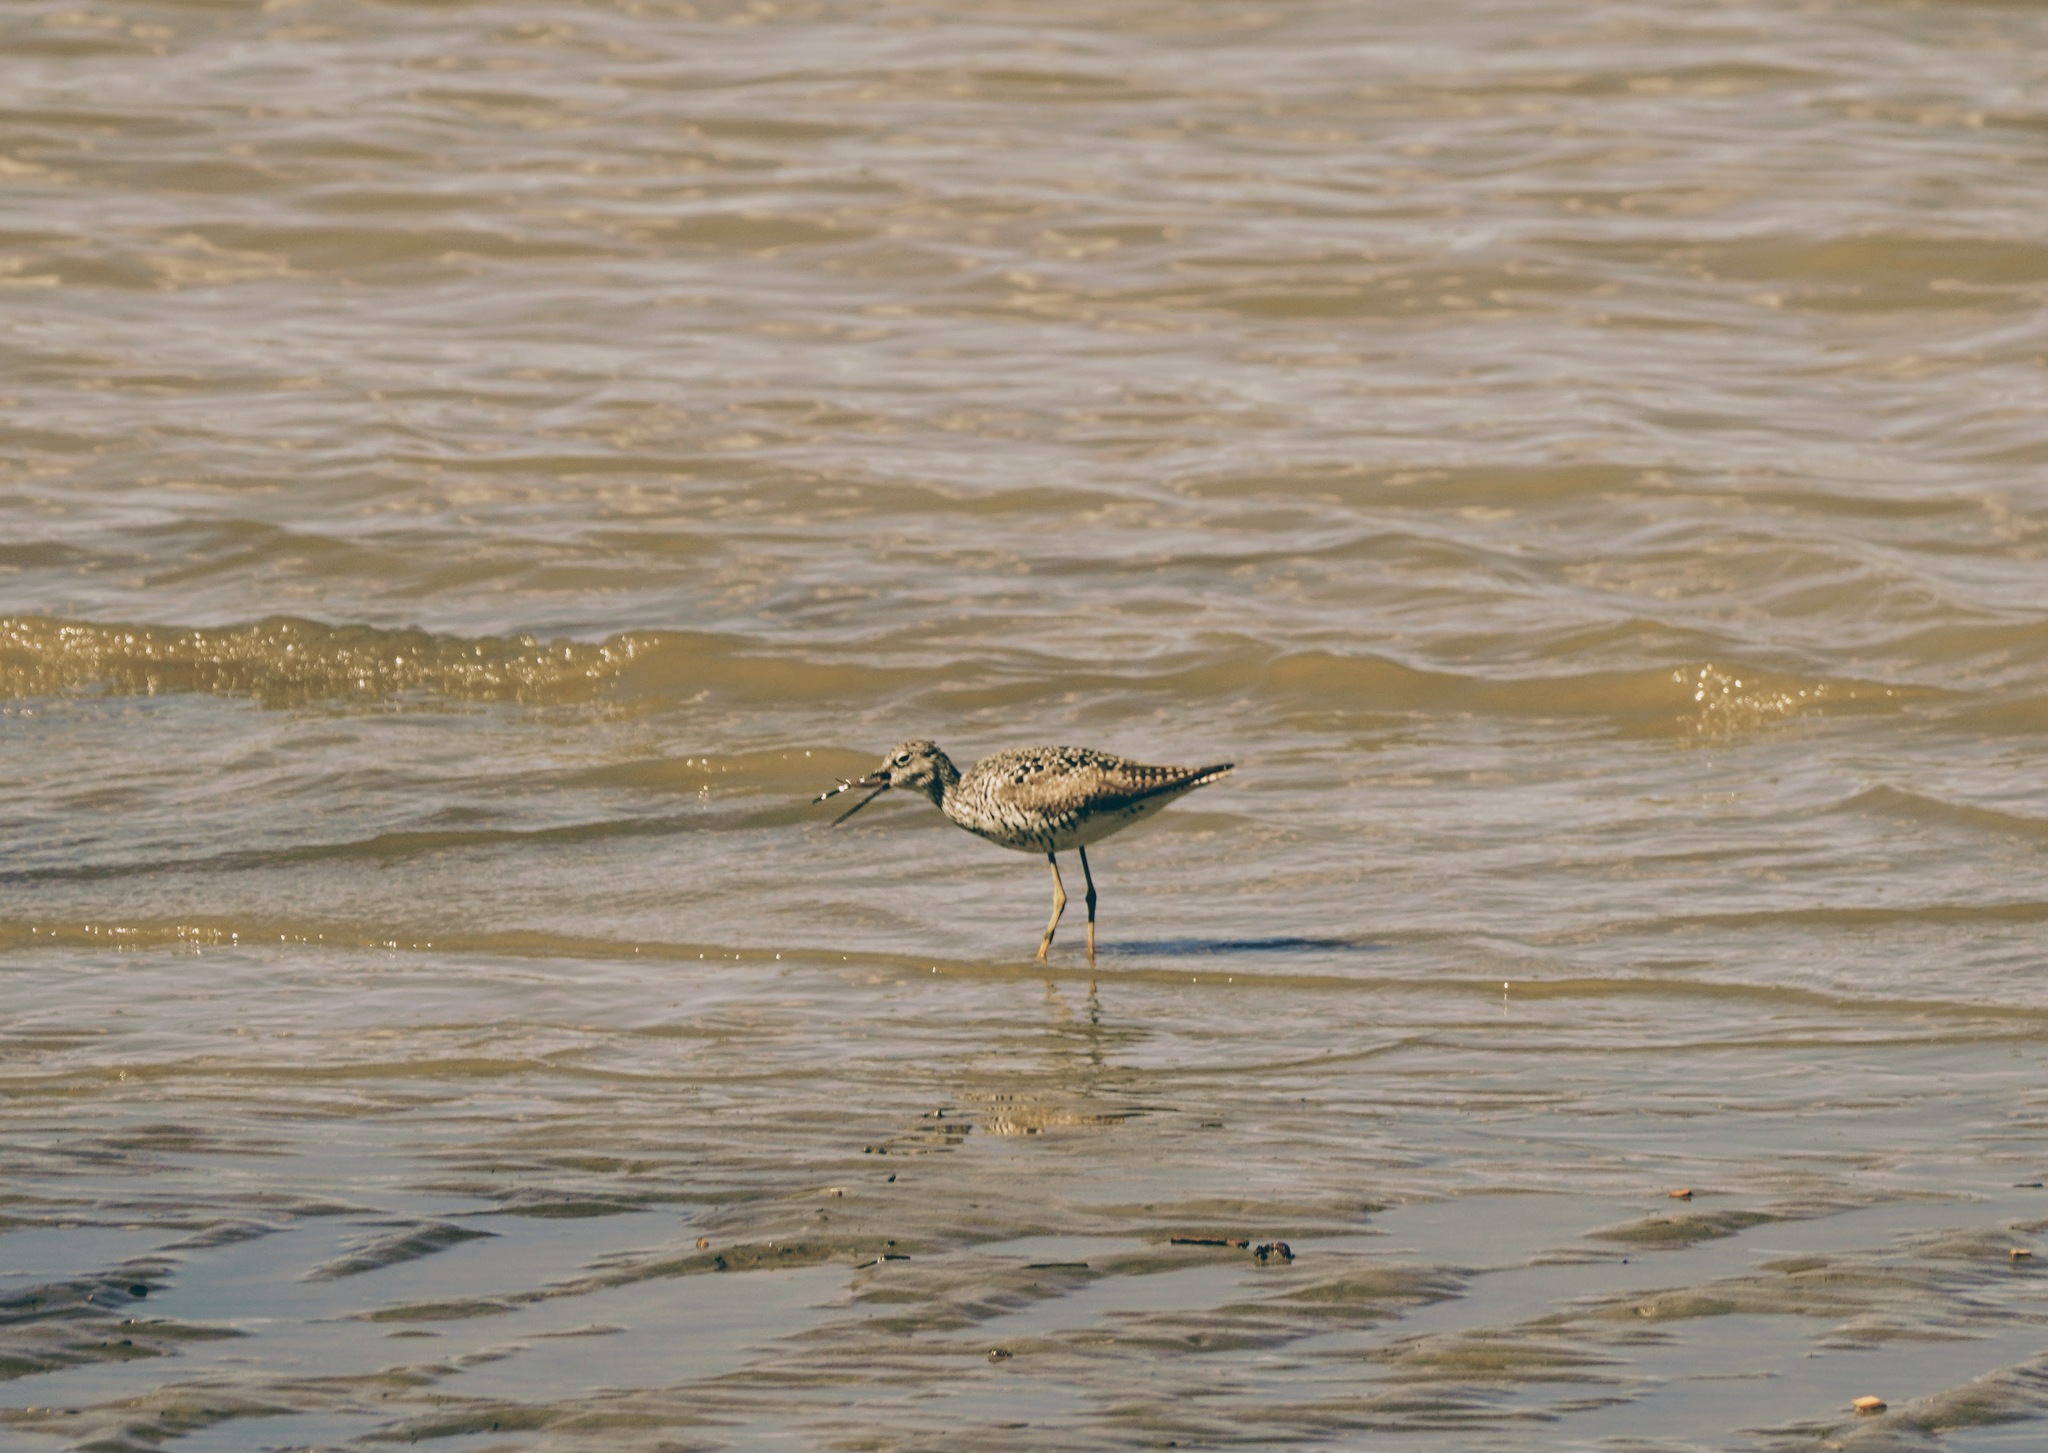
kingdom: Animalia
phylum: Chordata
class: Aves
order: Charadriiformes
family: Scolopacidae
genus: Tringa
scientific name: Tringa melanoleuca
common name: Greater yellowlegs
